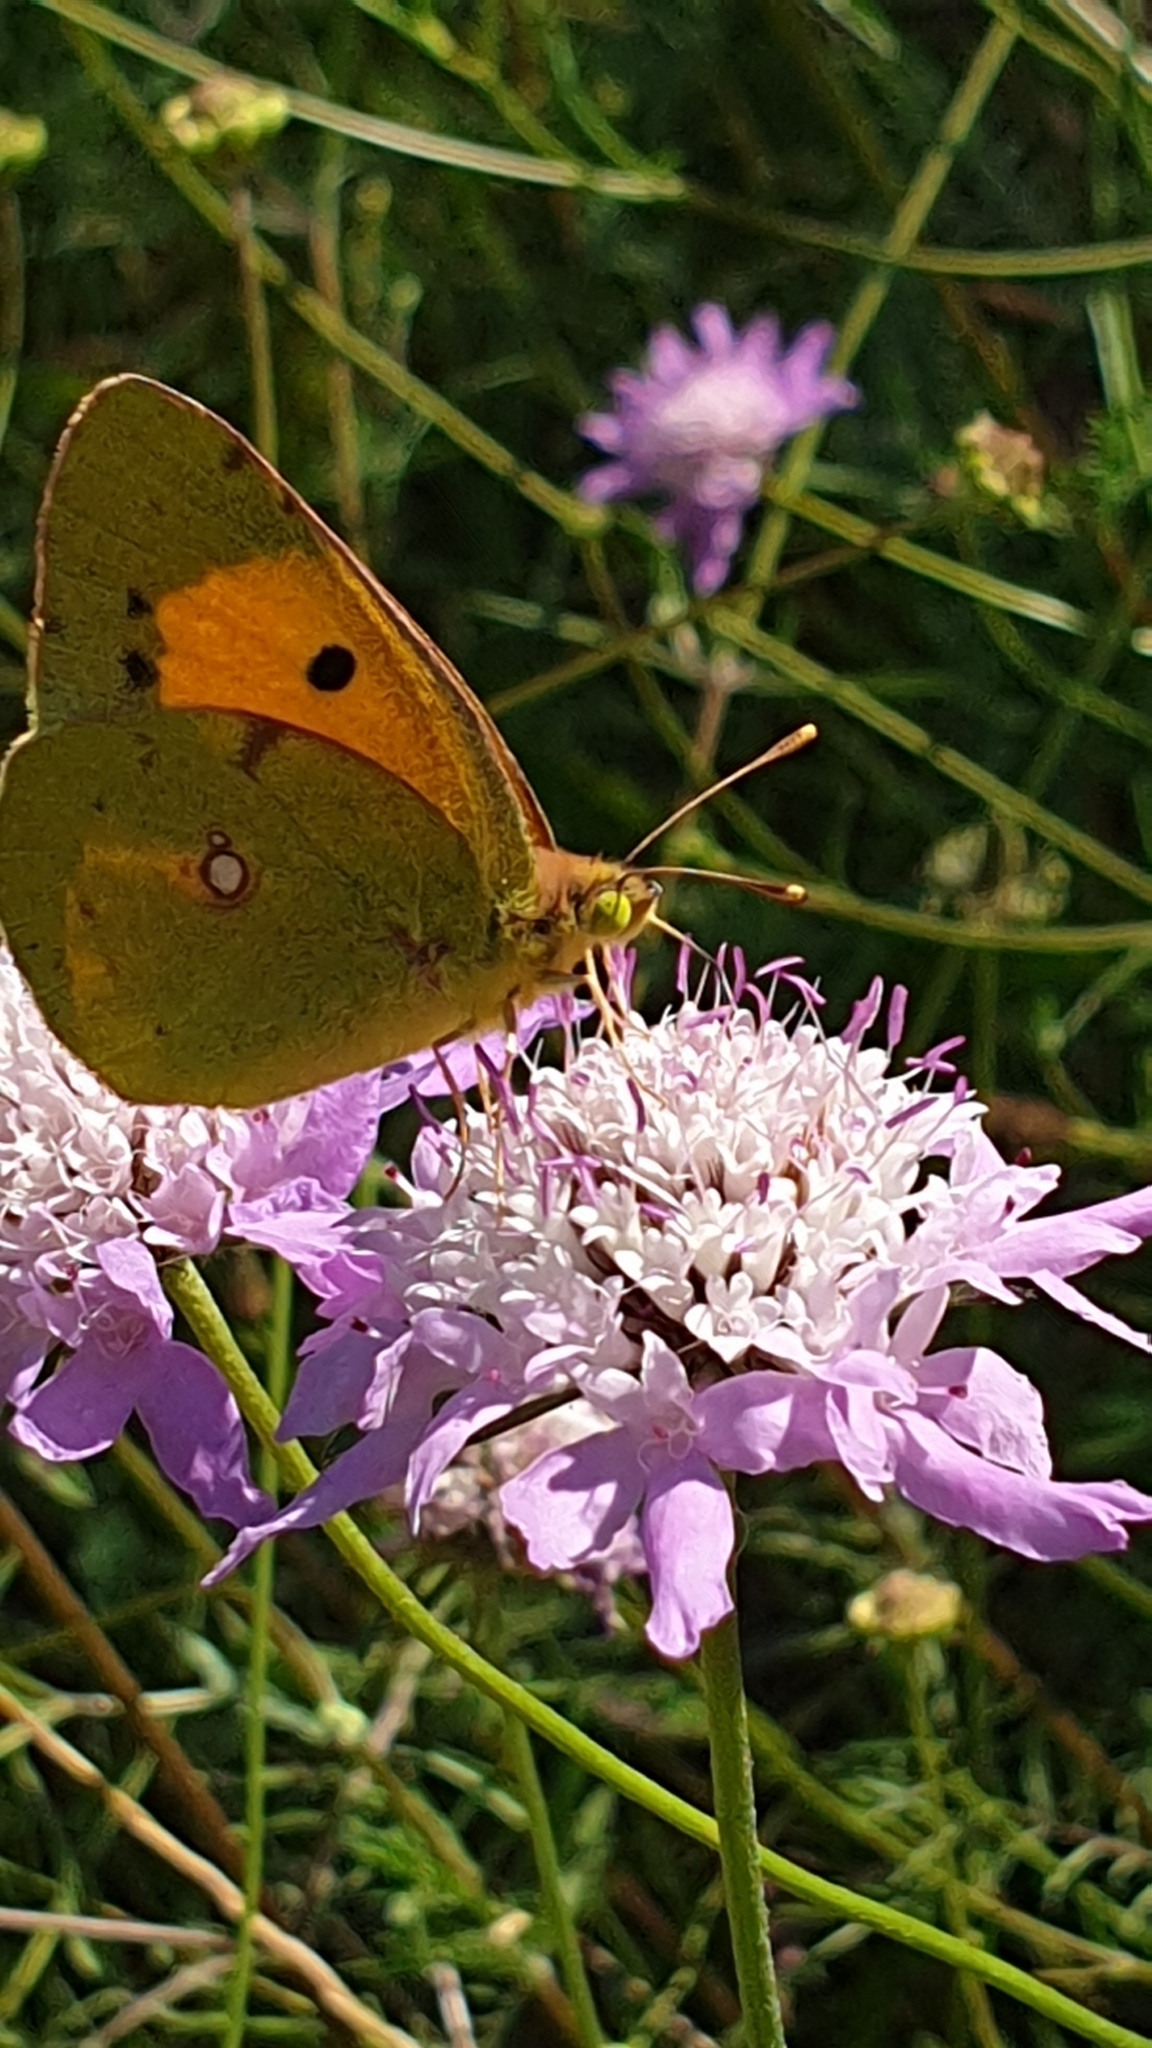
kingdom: Animalia
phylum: Arthropoda
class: Insecta
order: Lepidoptera
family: Pieridae
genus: Colias
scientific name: Colias croceus
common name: Clouded yellow
